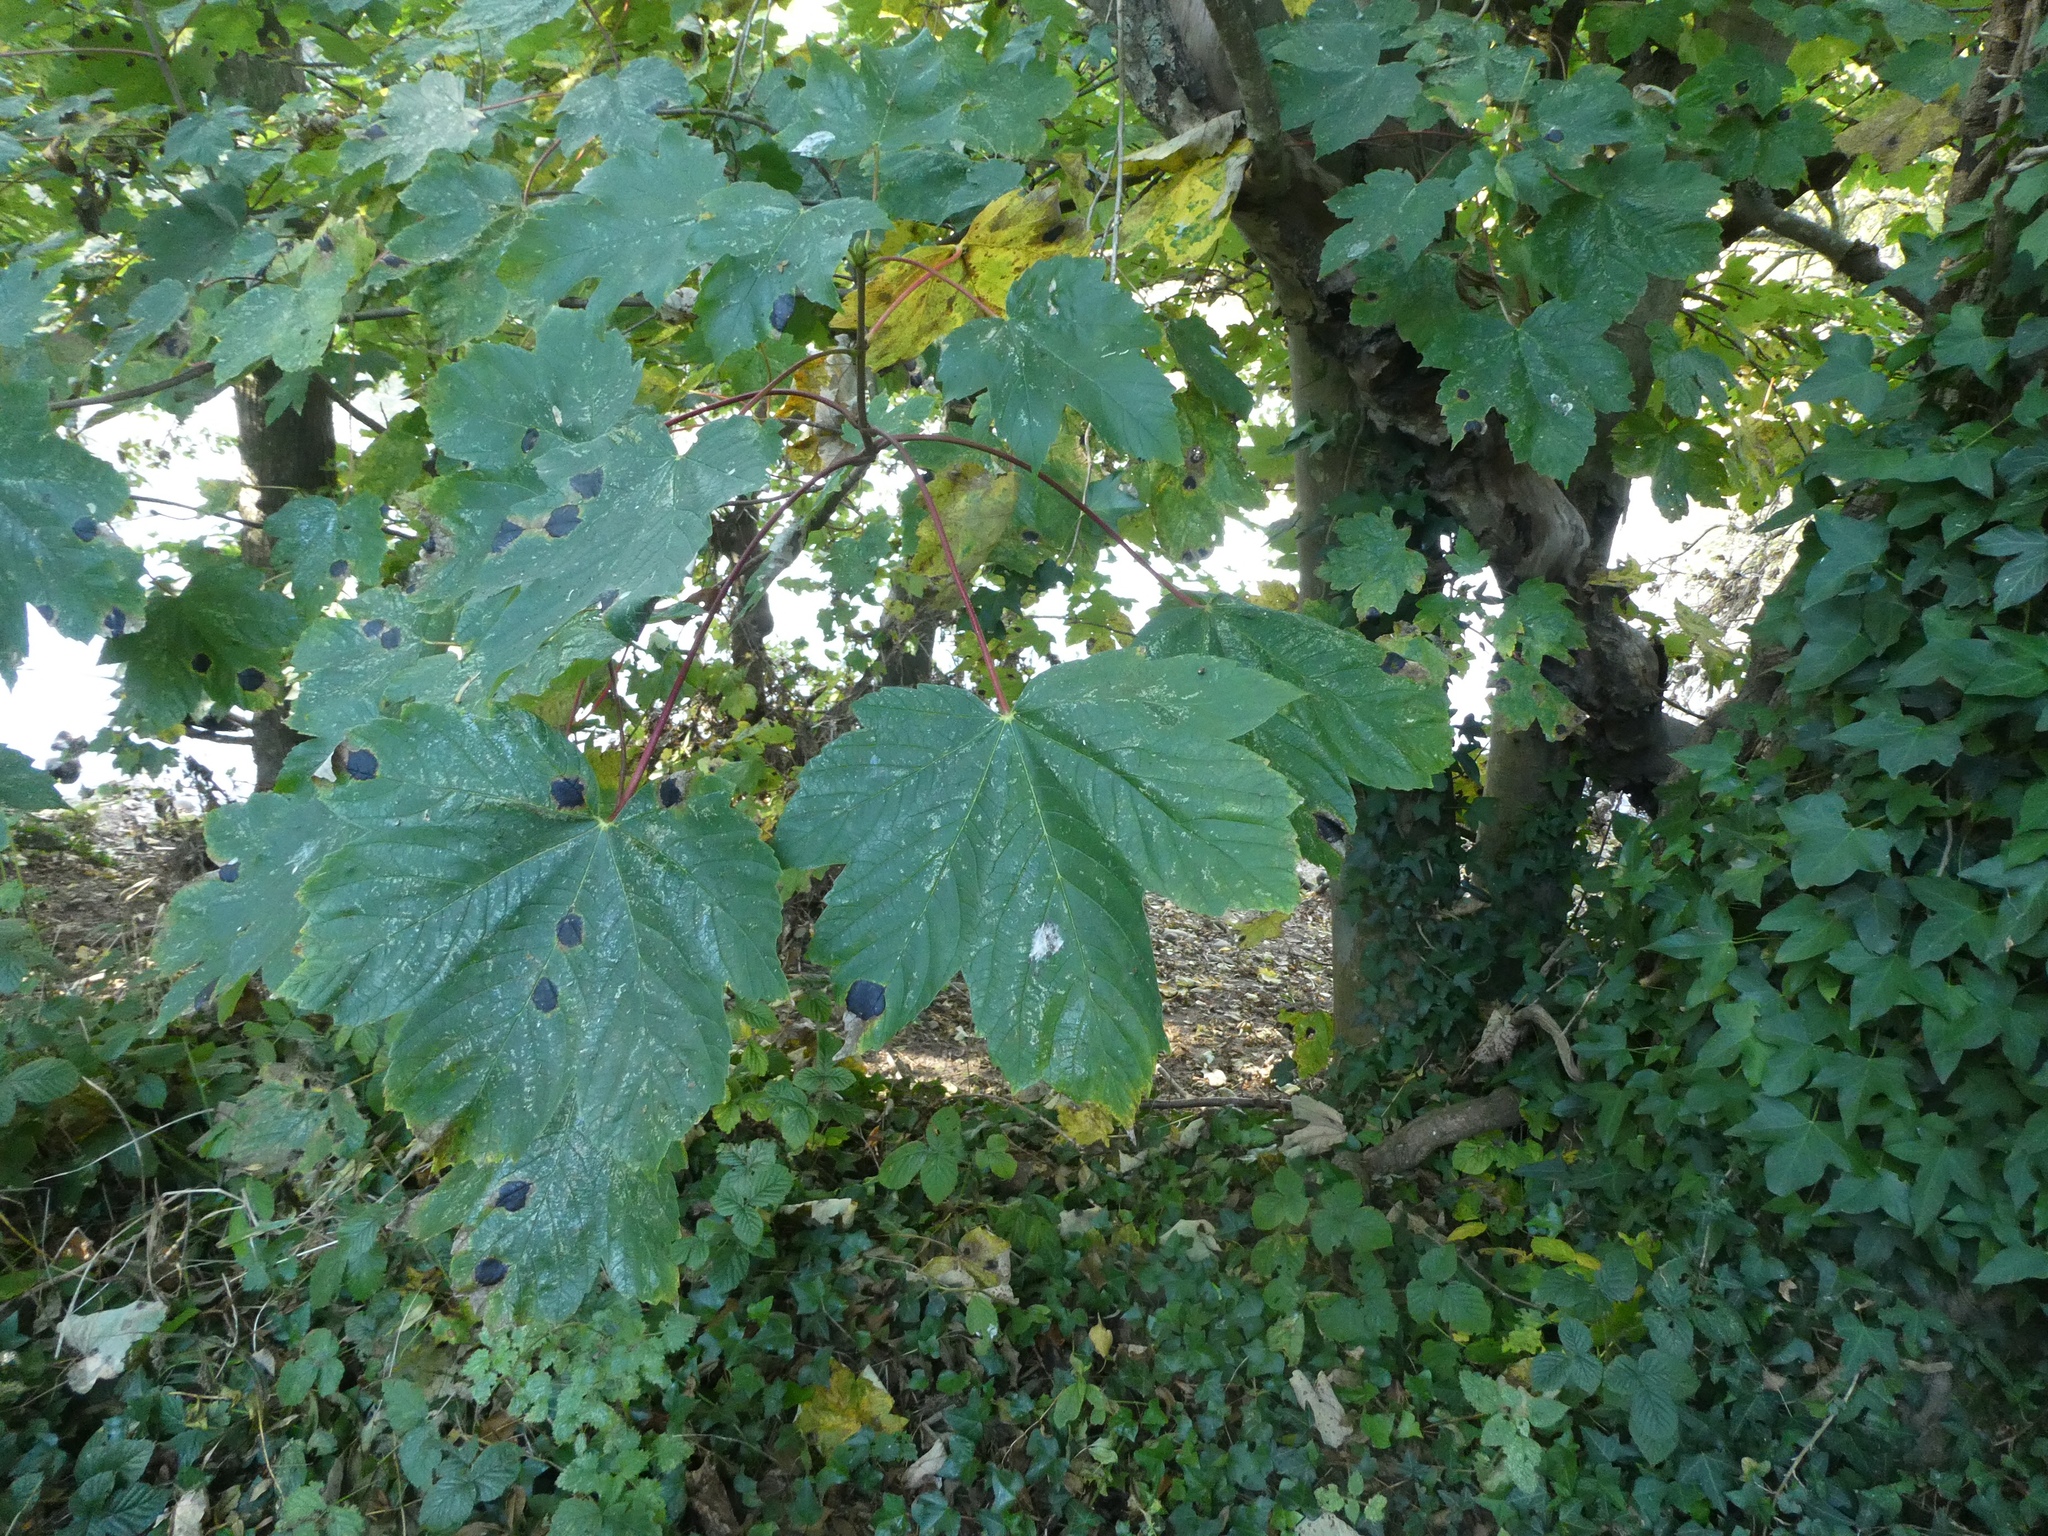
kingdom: Plantae
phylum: Tracheophyta
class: Magnoliopsida
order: Sapindales
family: Sapindaceae
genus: Acer
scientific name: Acer pseudoplatanus
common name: Sycamore
